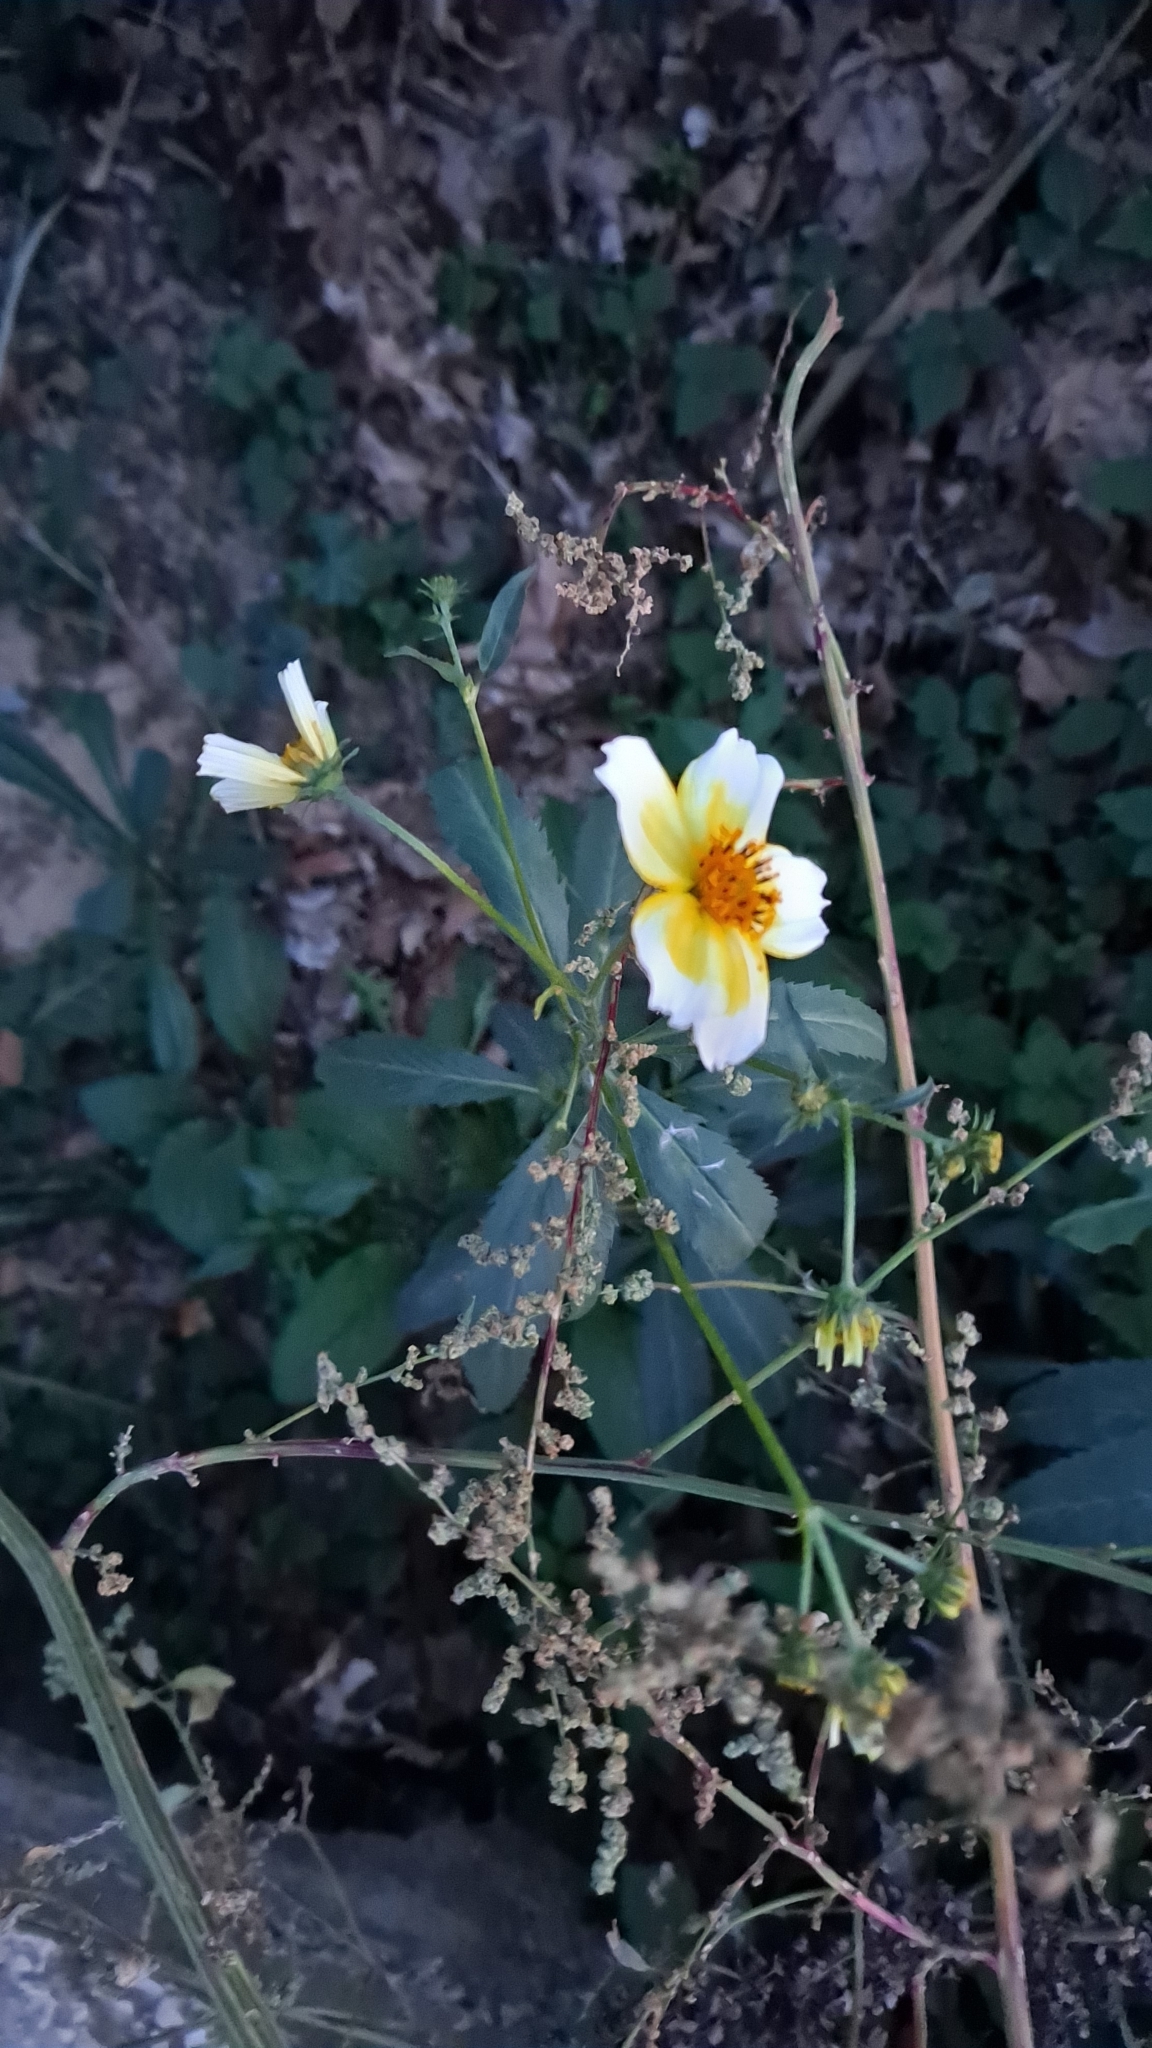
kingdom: Plantae
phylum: Tracheophyta
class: Magnoliopsida
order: Asterales
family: Asteraceae
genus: Bidens
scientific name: Bidens aurea
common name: Arizona beggar-ticks
